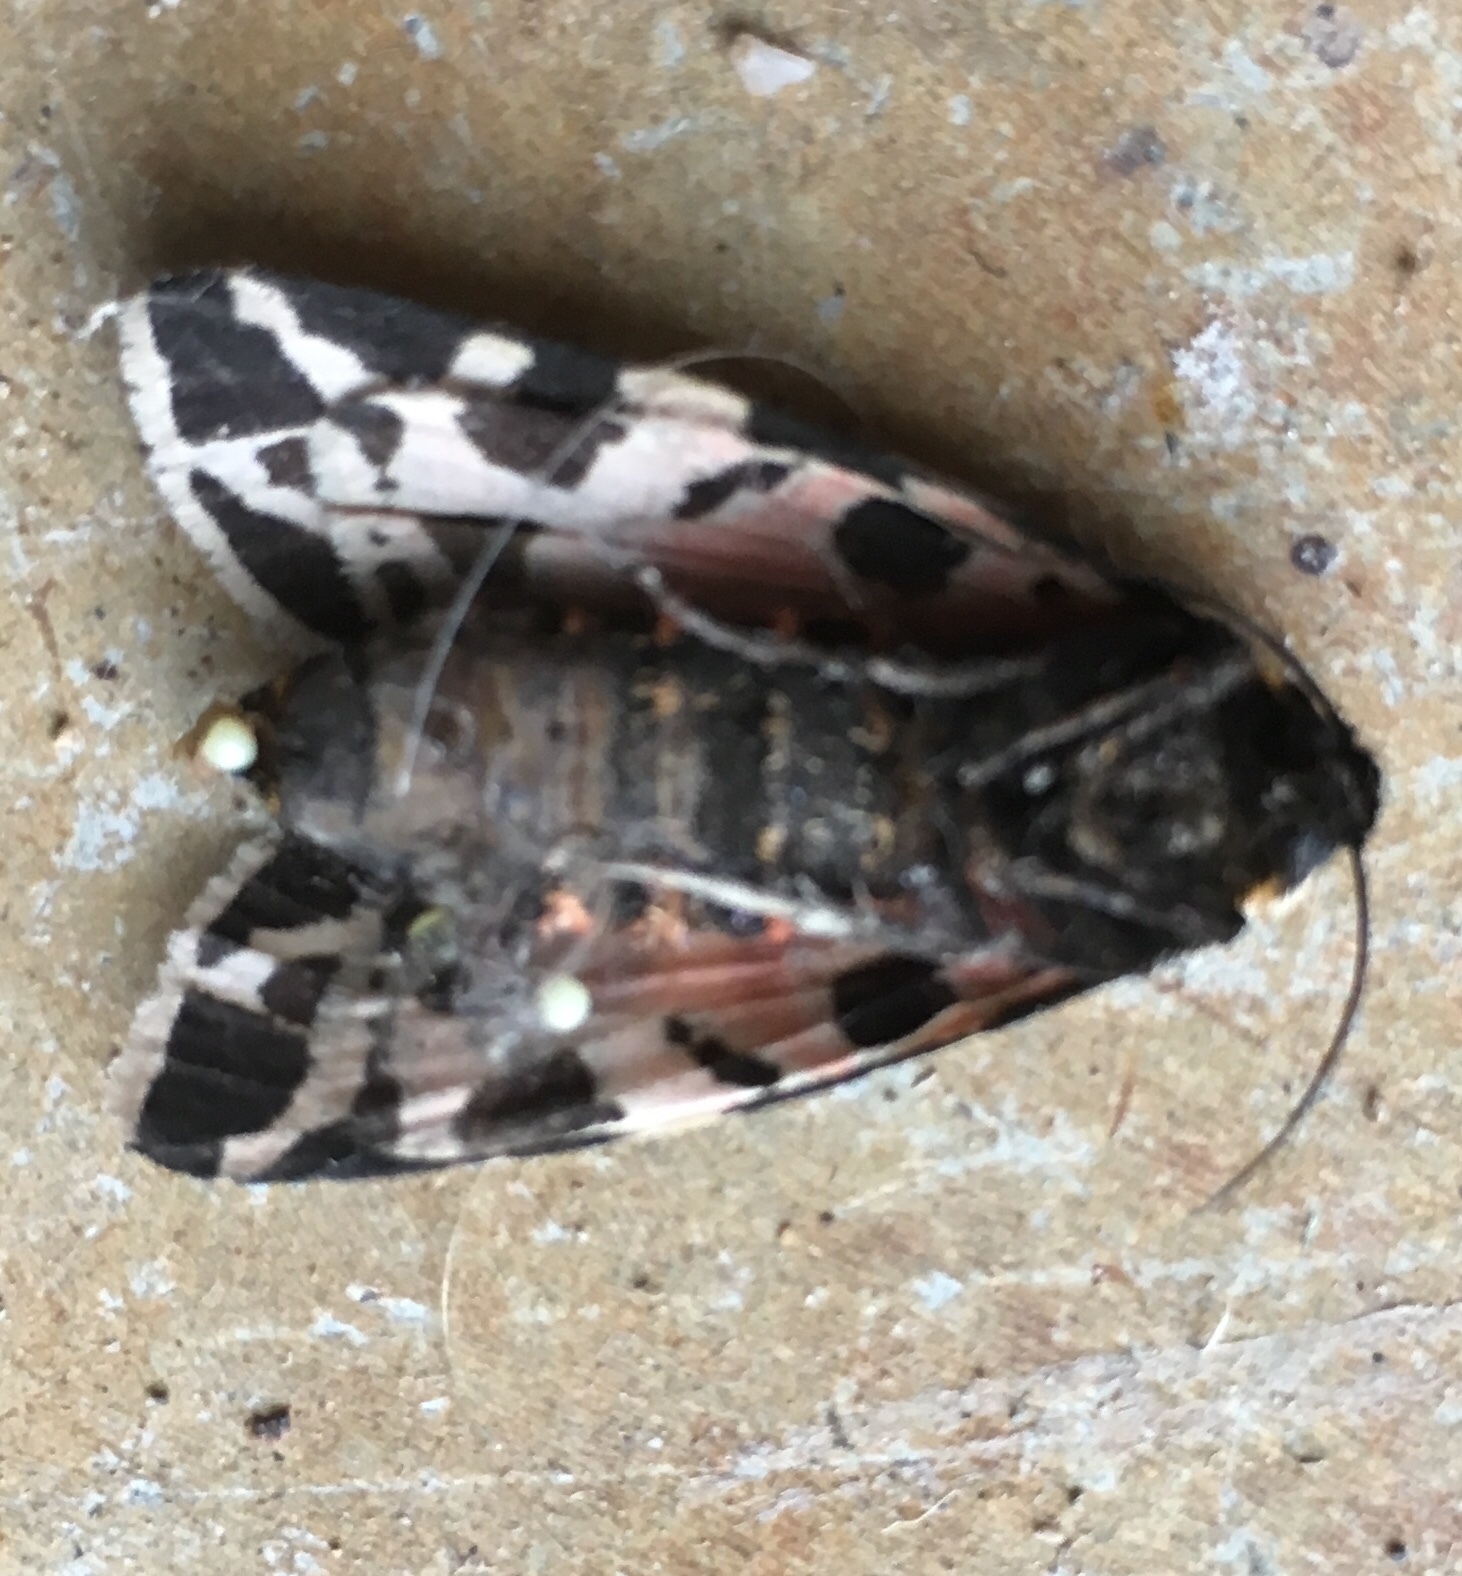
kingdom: Animalia
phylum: Arthropoda
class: Insecta
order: Lepidoptera
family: Erebidae
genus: Cymbalophora
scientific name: Cymbalophora pudica
